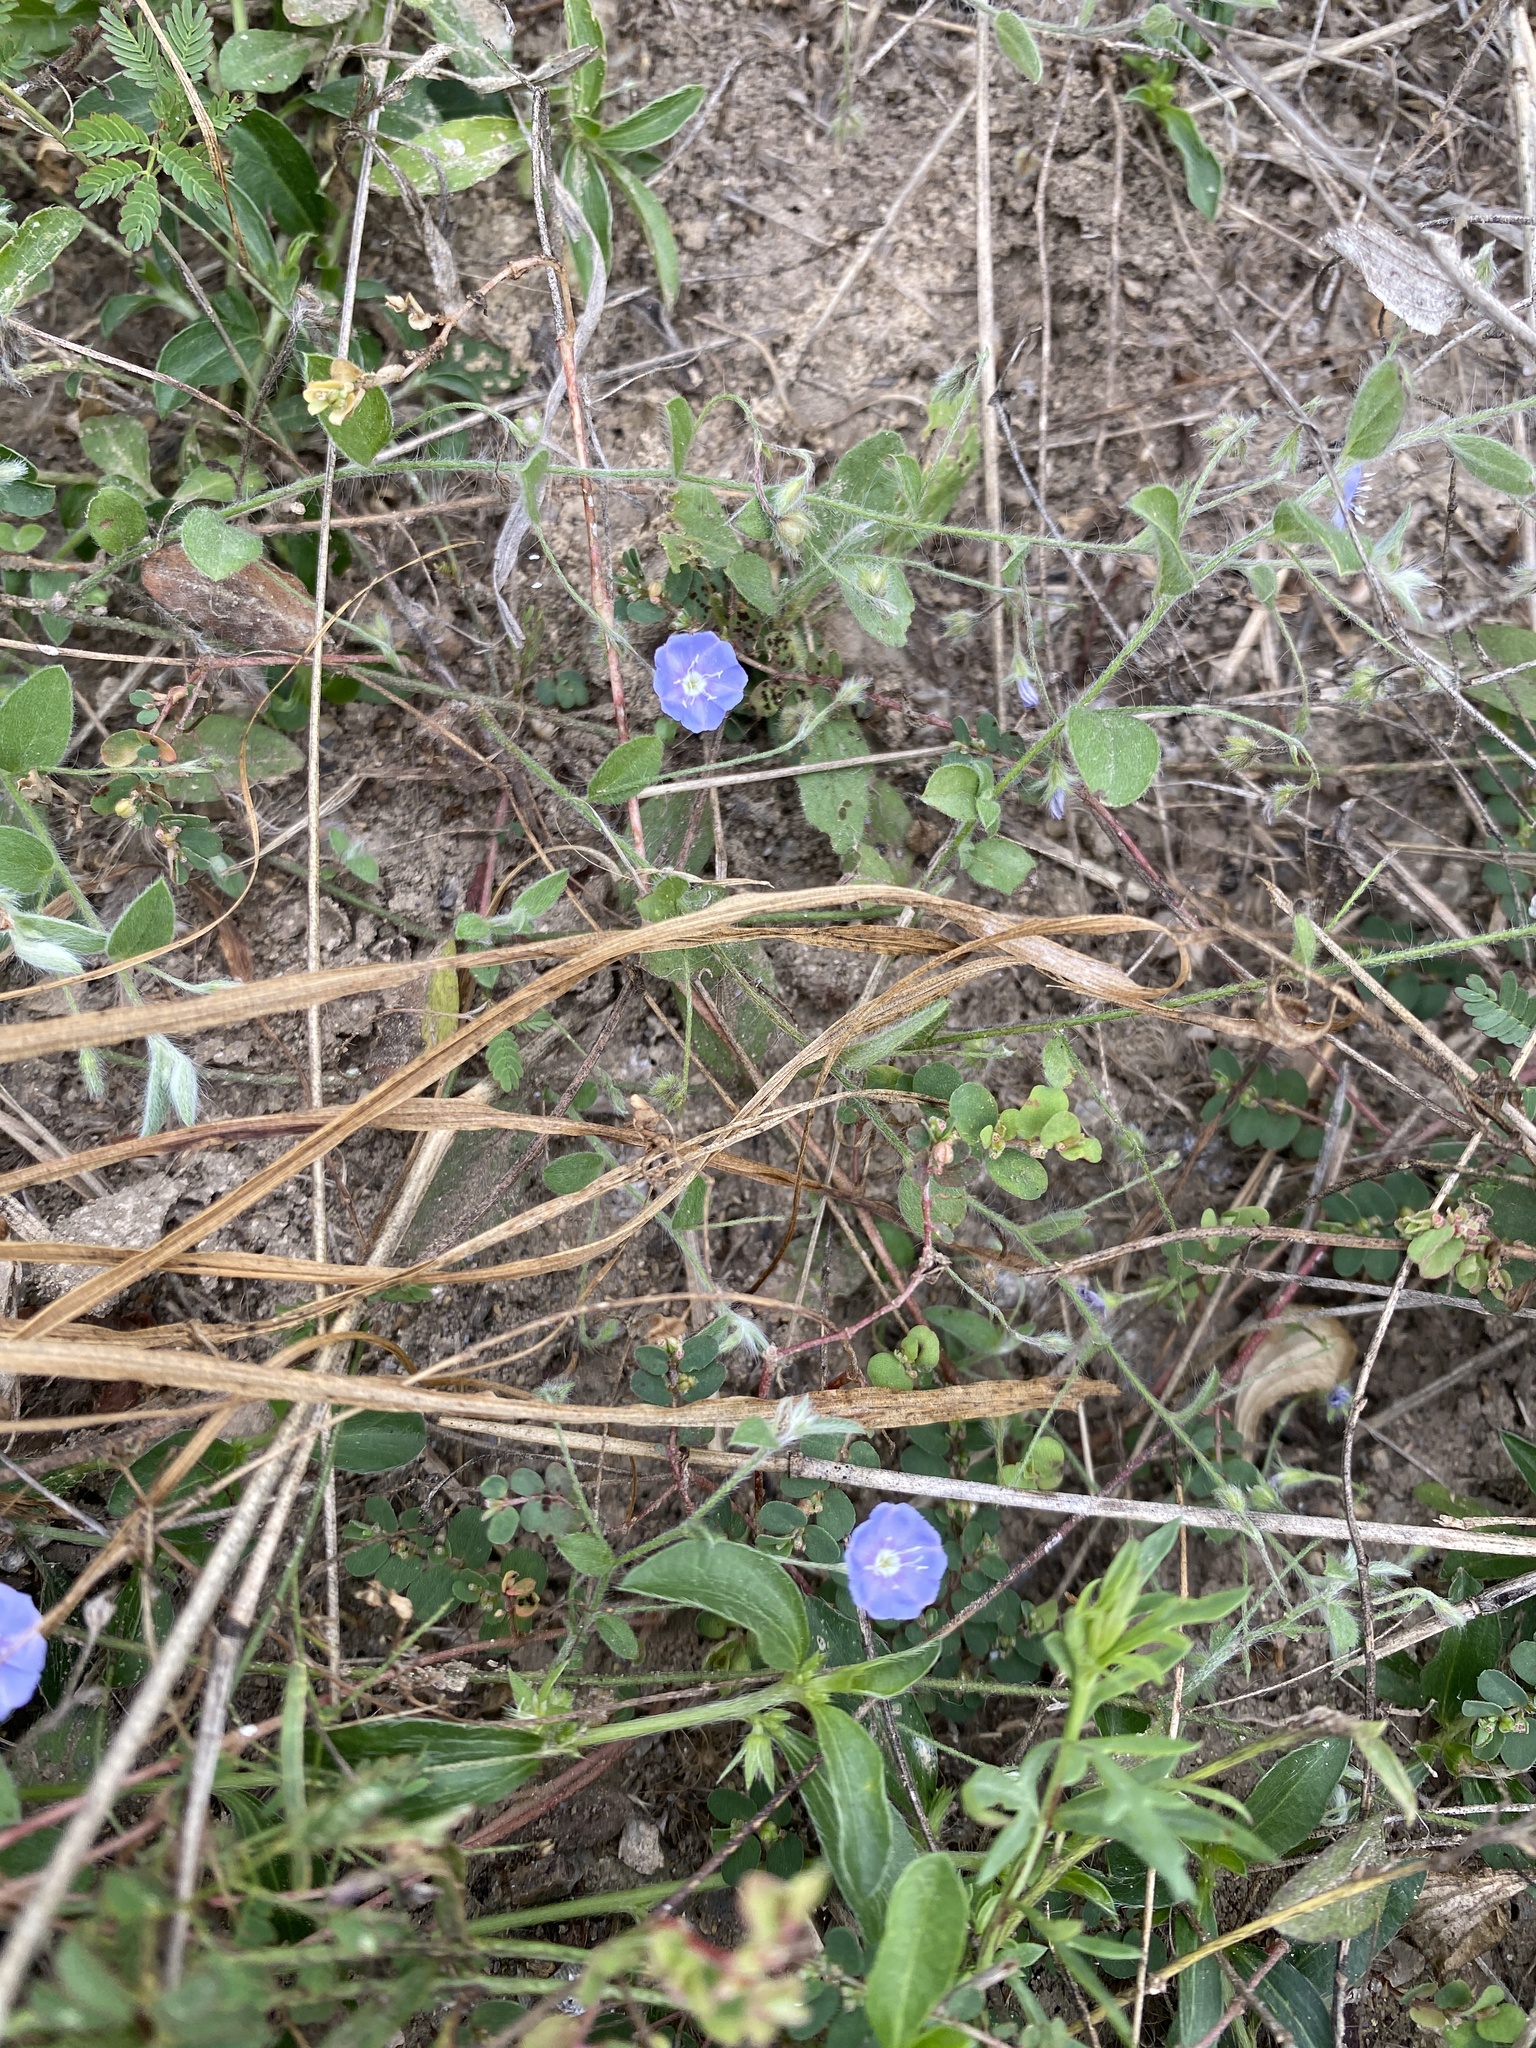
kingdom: Plantae
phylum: Tracheophyta
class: Magnoliopsida
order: Solanales
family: Convolvulaceae
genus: Evolvulus
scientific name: Evolvulus alsinoides
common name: Slender dwarf morning-glory
